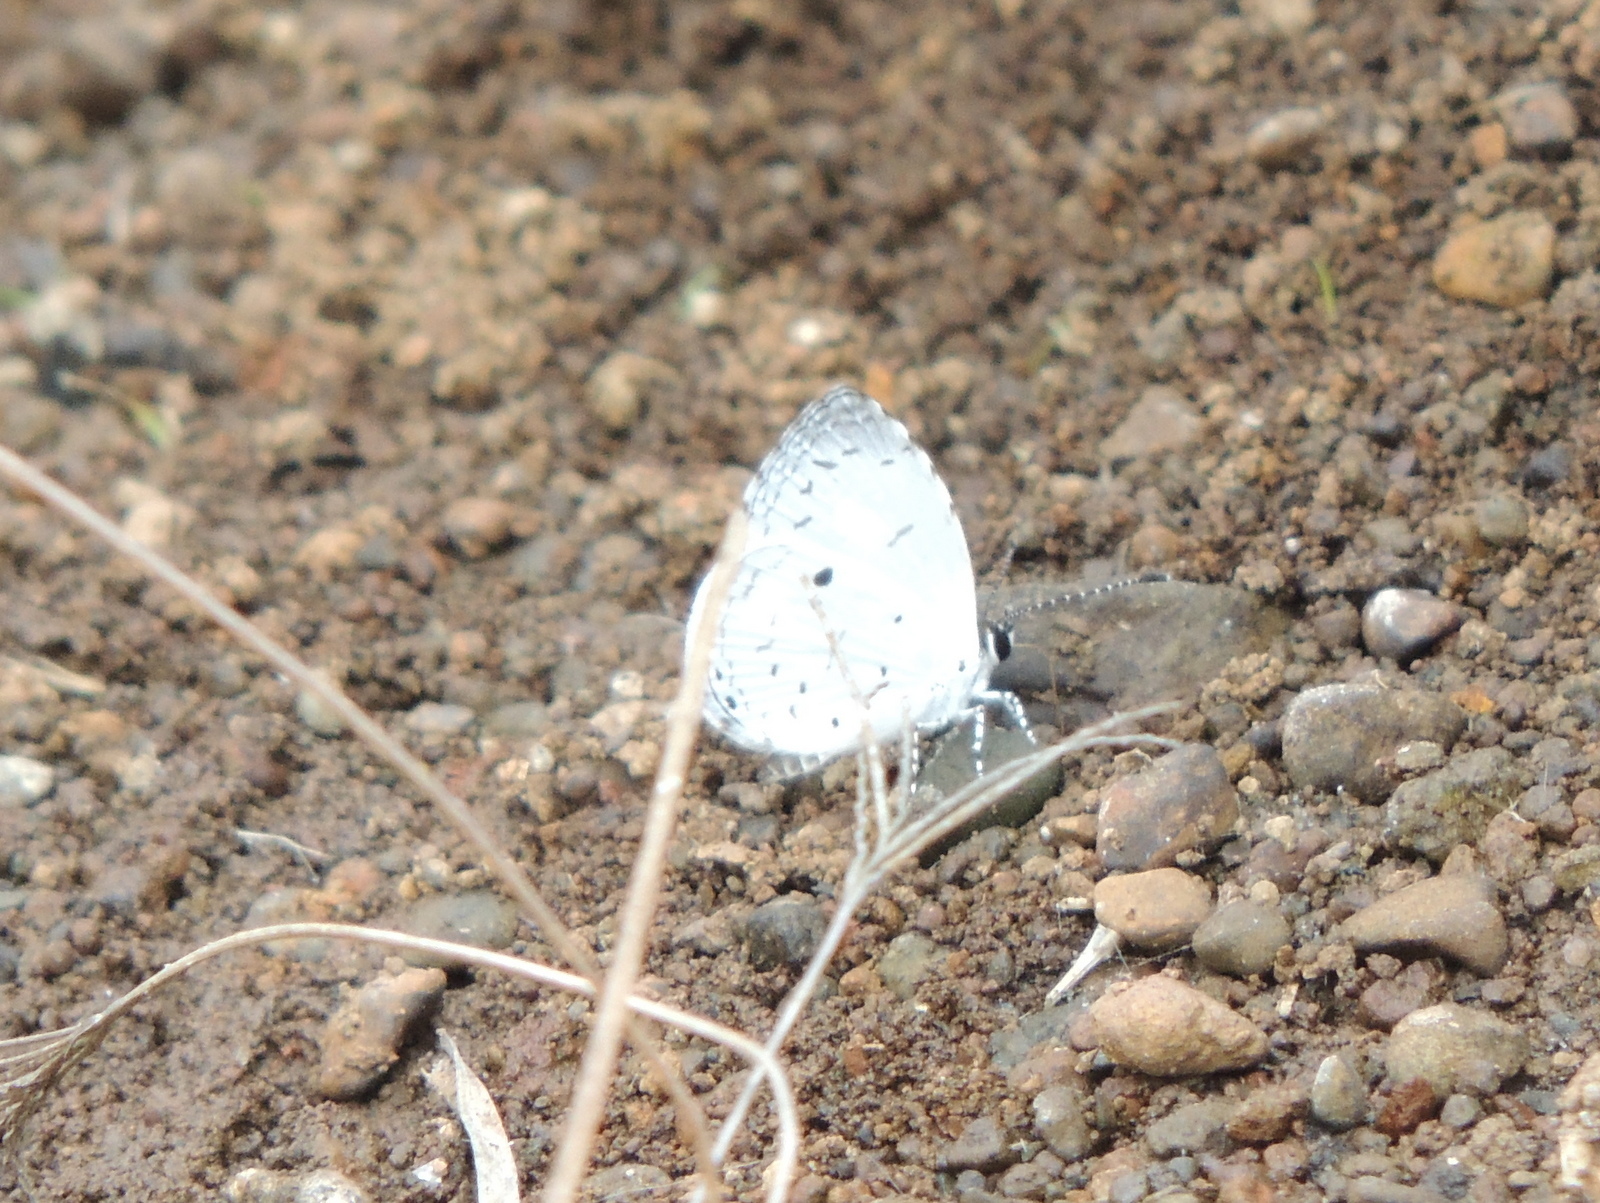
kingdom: Animalia
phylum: Arthropoda
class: Insecta
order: Lepidoptera
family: Lycaenidae
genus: Neopithecops
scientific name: Neopithecops zalmora
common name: Quaker
